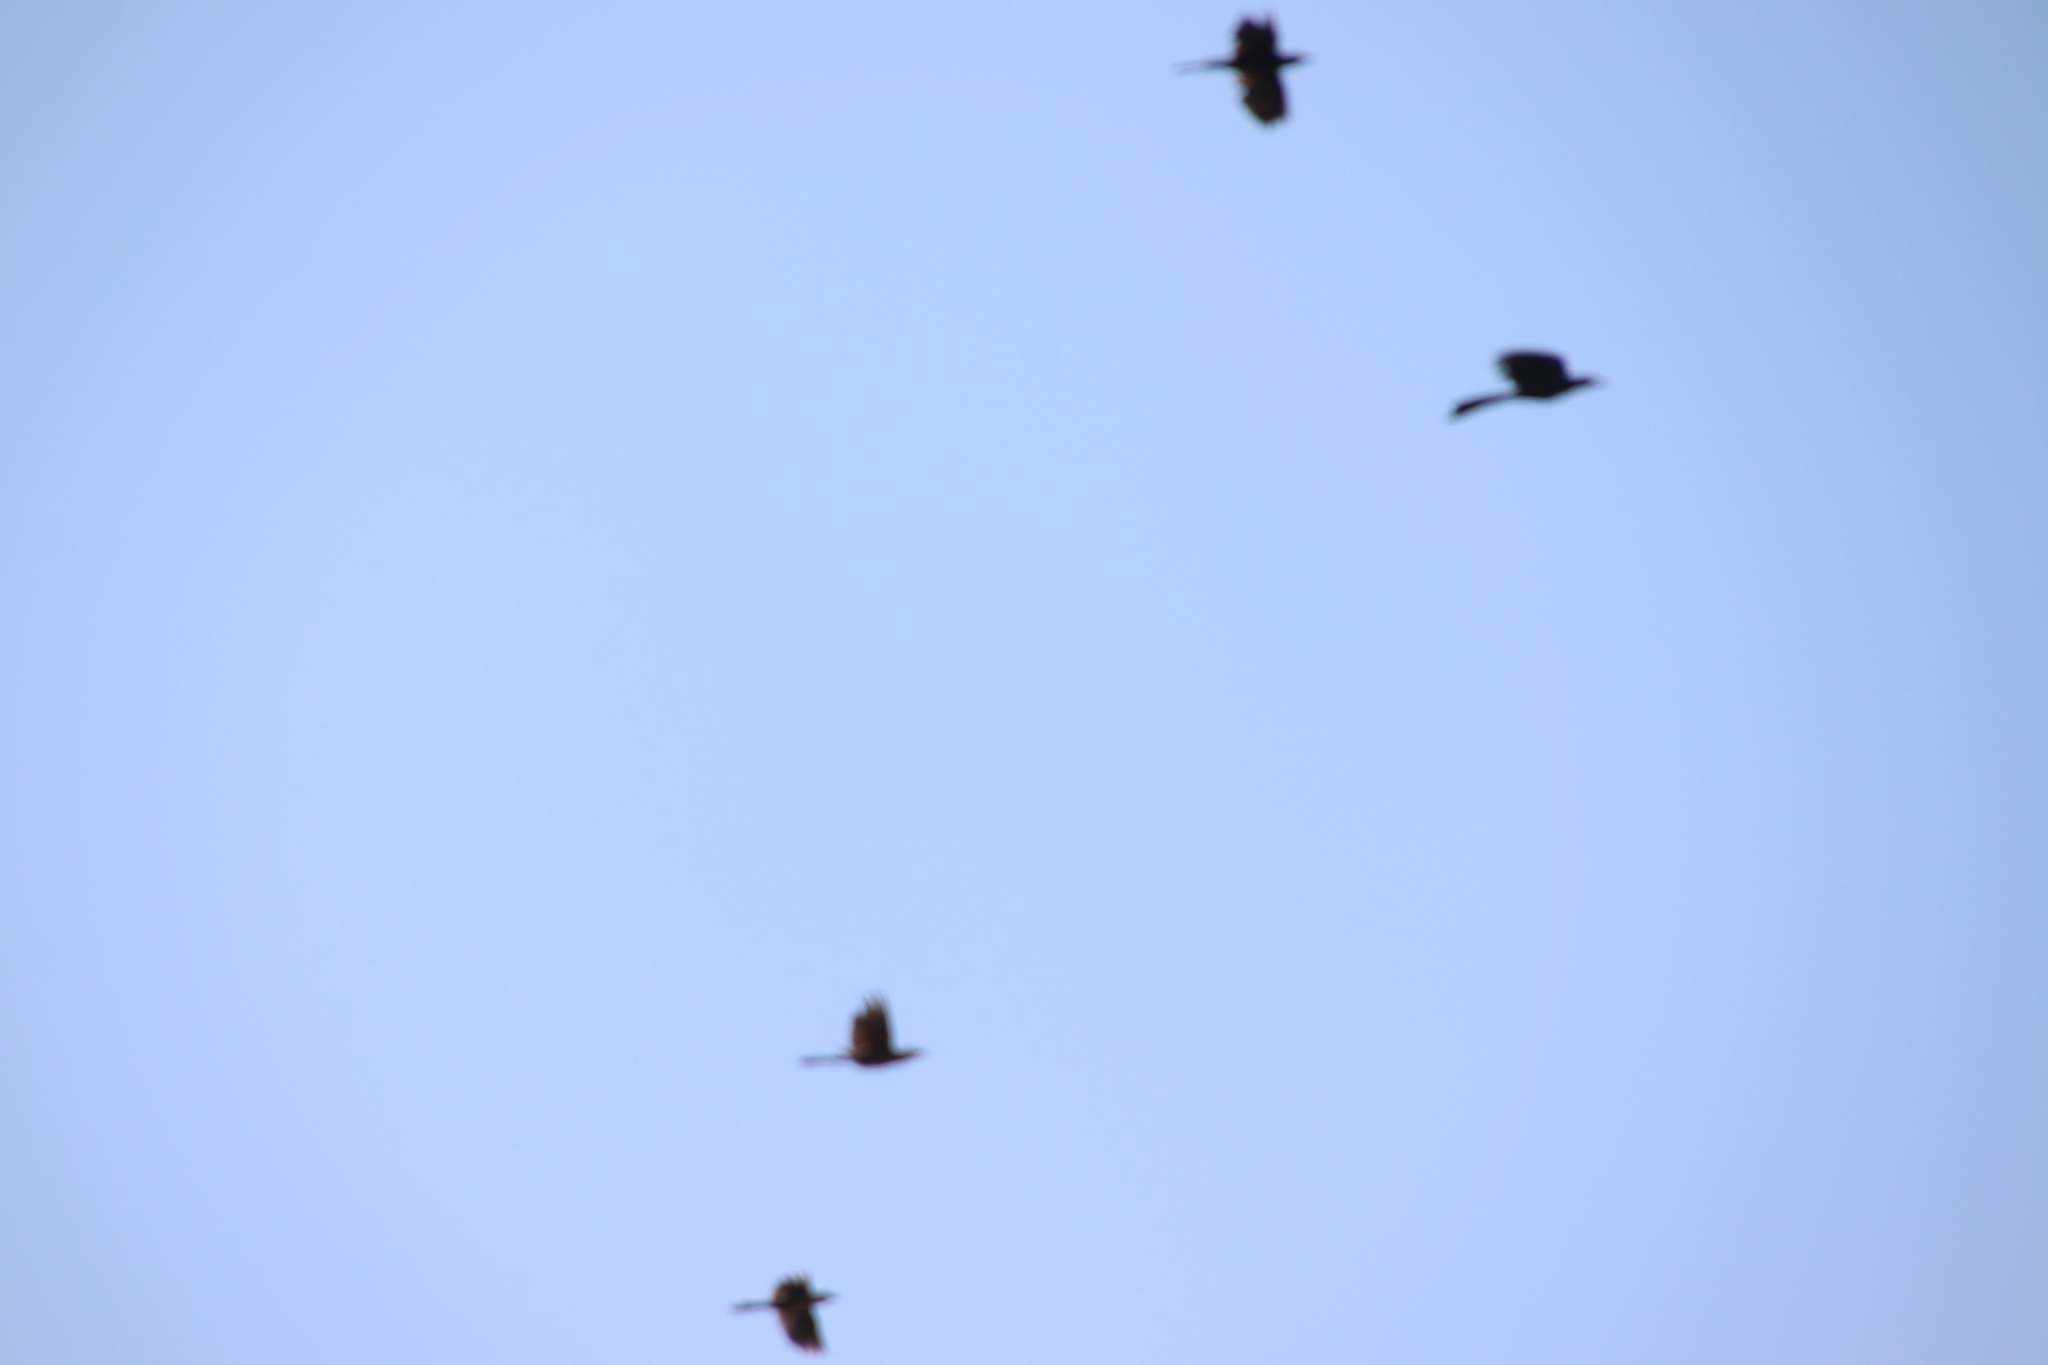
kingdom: Animalia
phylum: Chordata
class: Aves
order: Passeriformes
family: Icteridae
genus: Quiscalus
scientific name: Quiscalus mexicanus
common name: Great-tailed grackle
